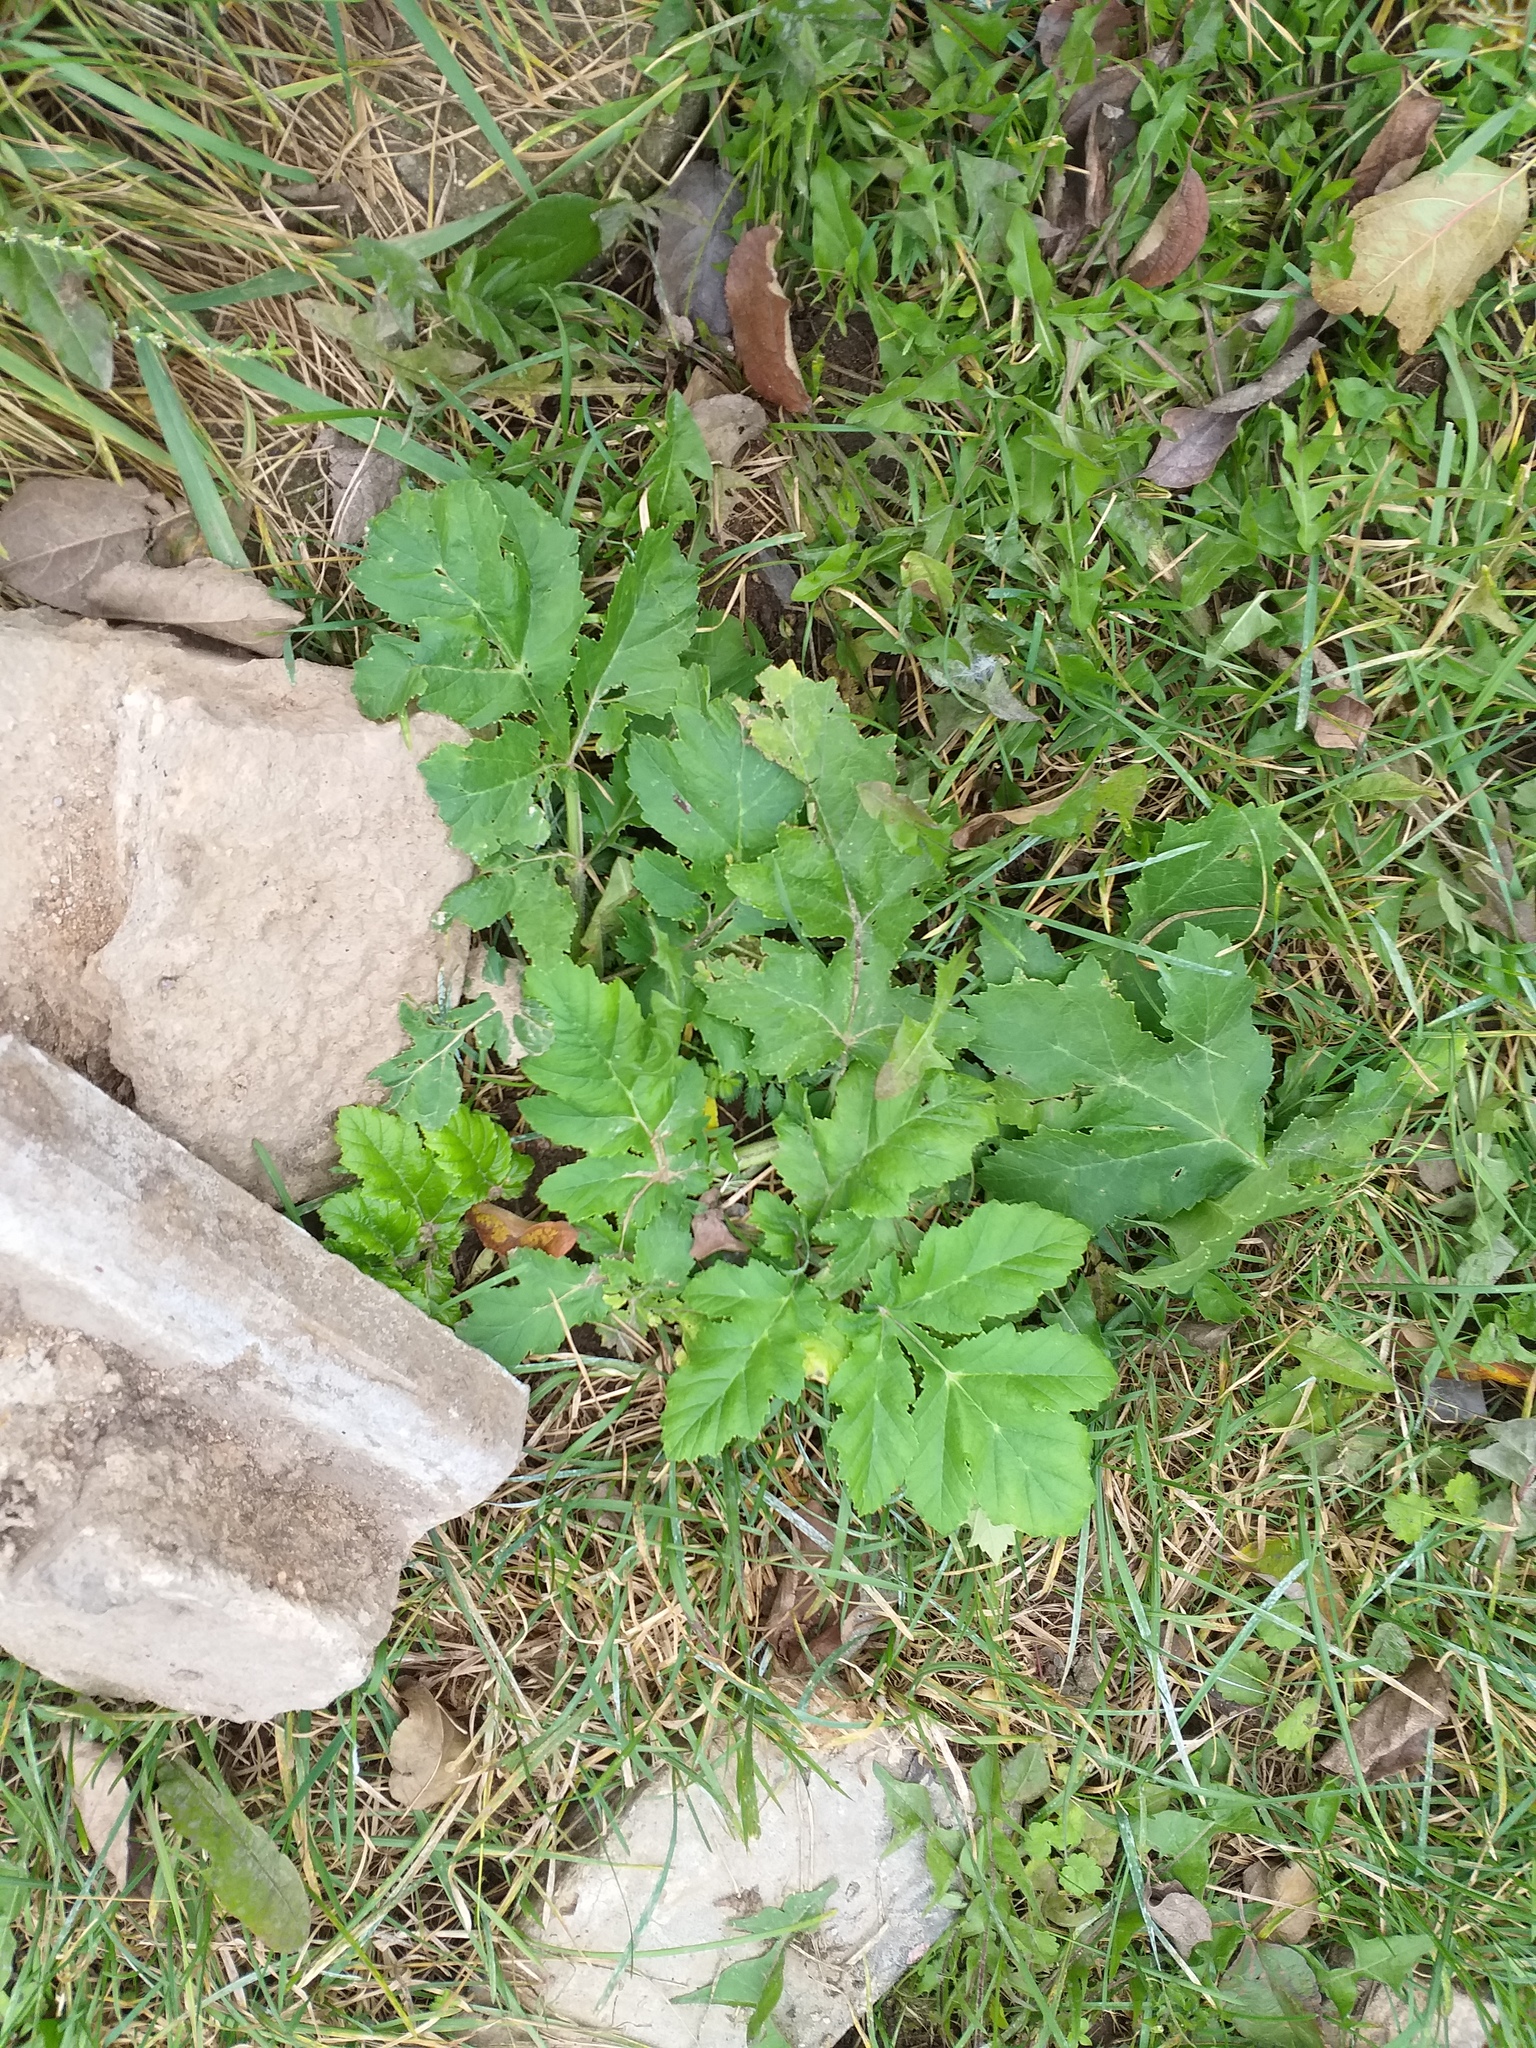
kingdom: Plantae
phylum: Tracheophyta
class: Magnoliopsida
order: Apiales
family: Apiaceae
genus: Heracleum
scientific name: Heracleum sosnowskyi
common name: Sosnowsky's hogweed
